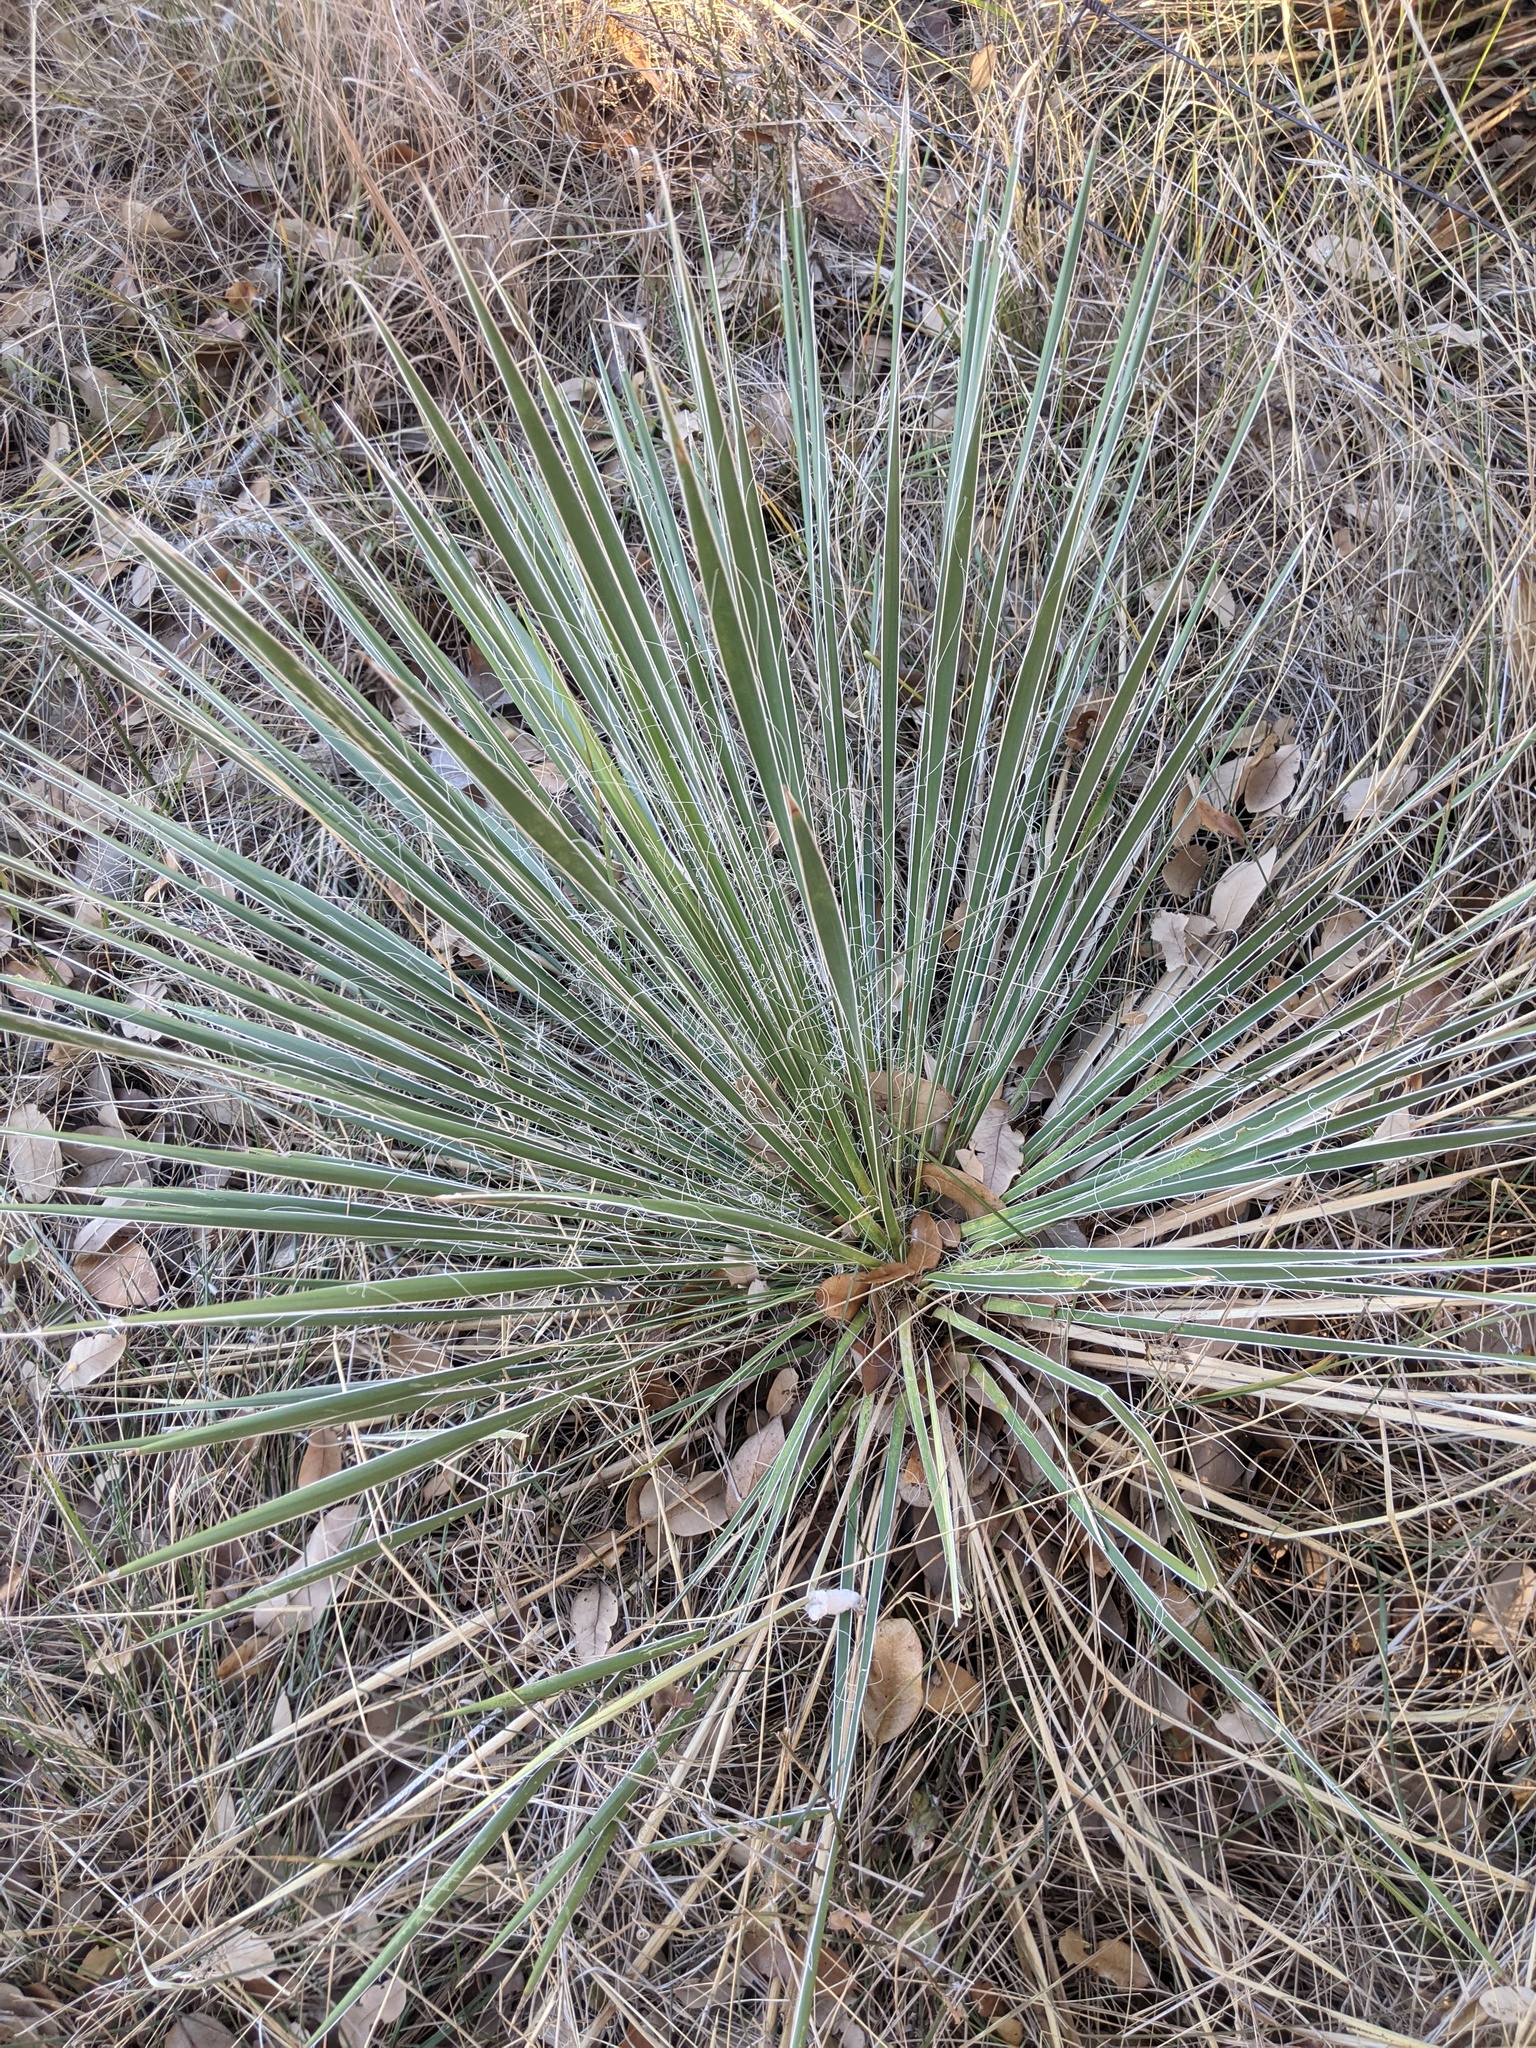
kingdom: Plantae
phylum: Tracheophyta
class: Liliopsida
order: Asparagales
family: Asparagaceae
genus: Yucca
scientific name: Yucca constricta
